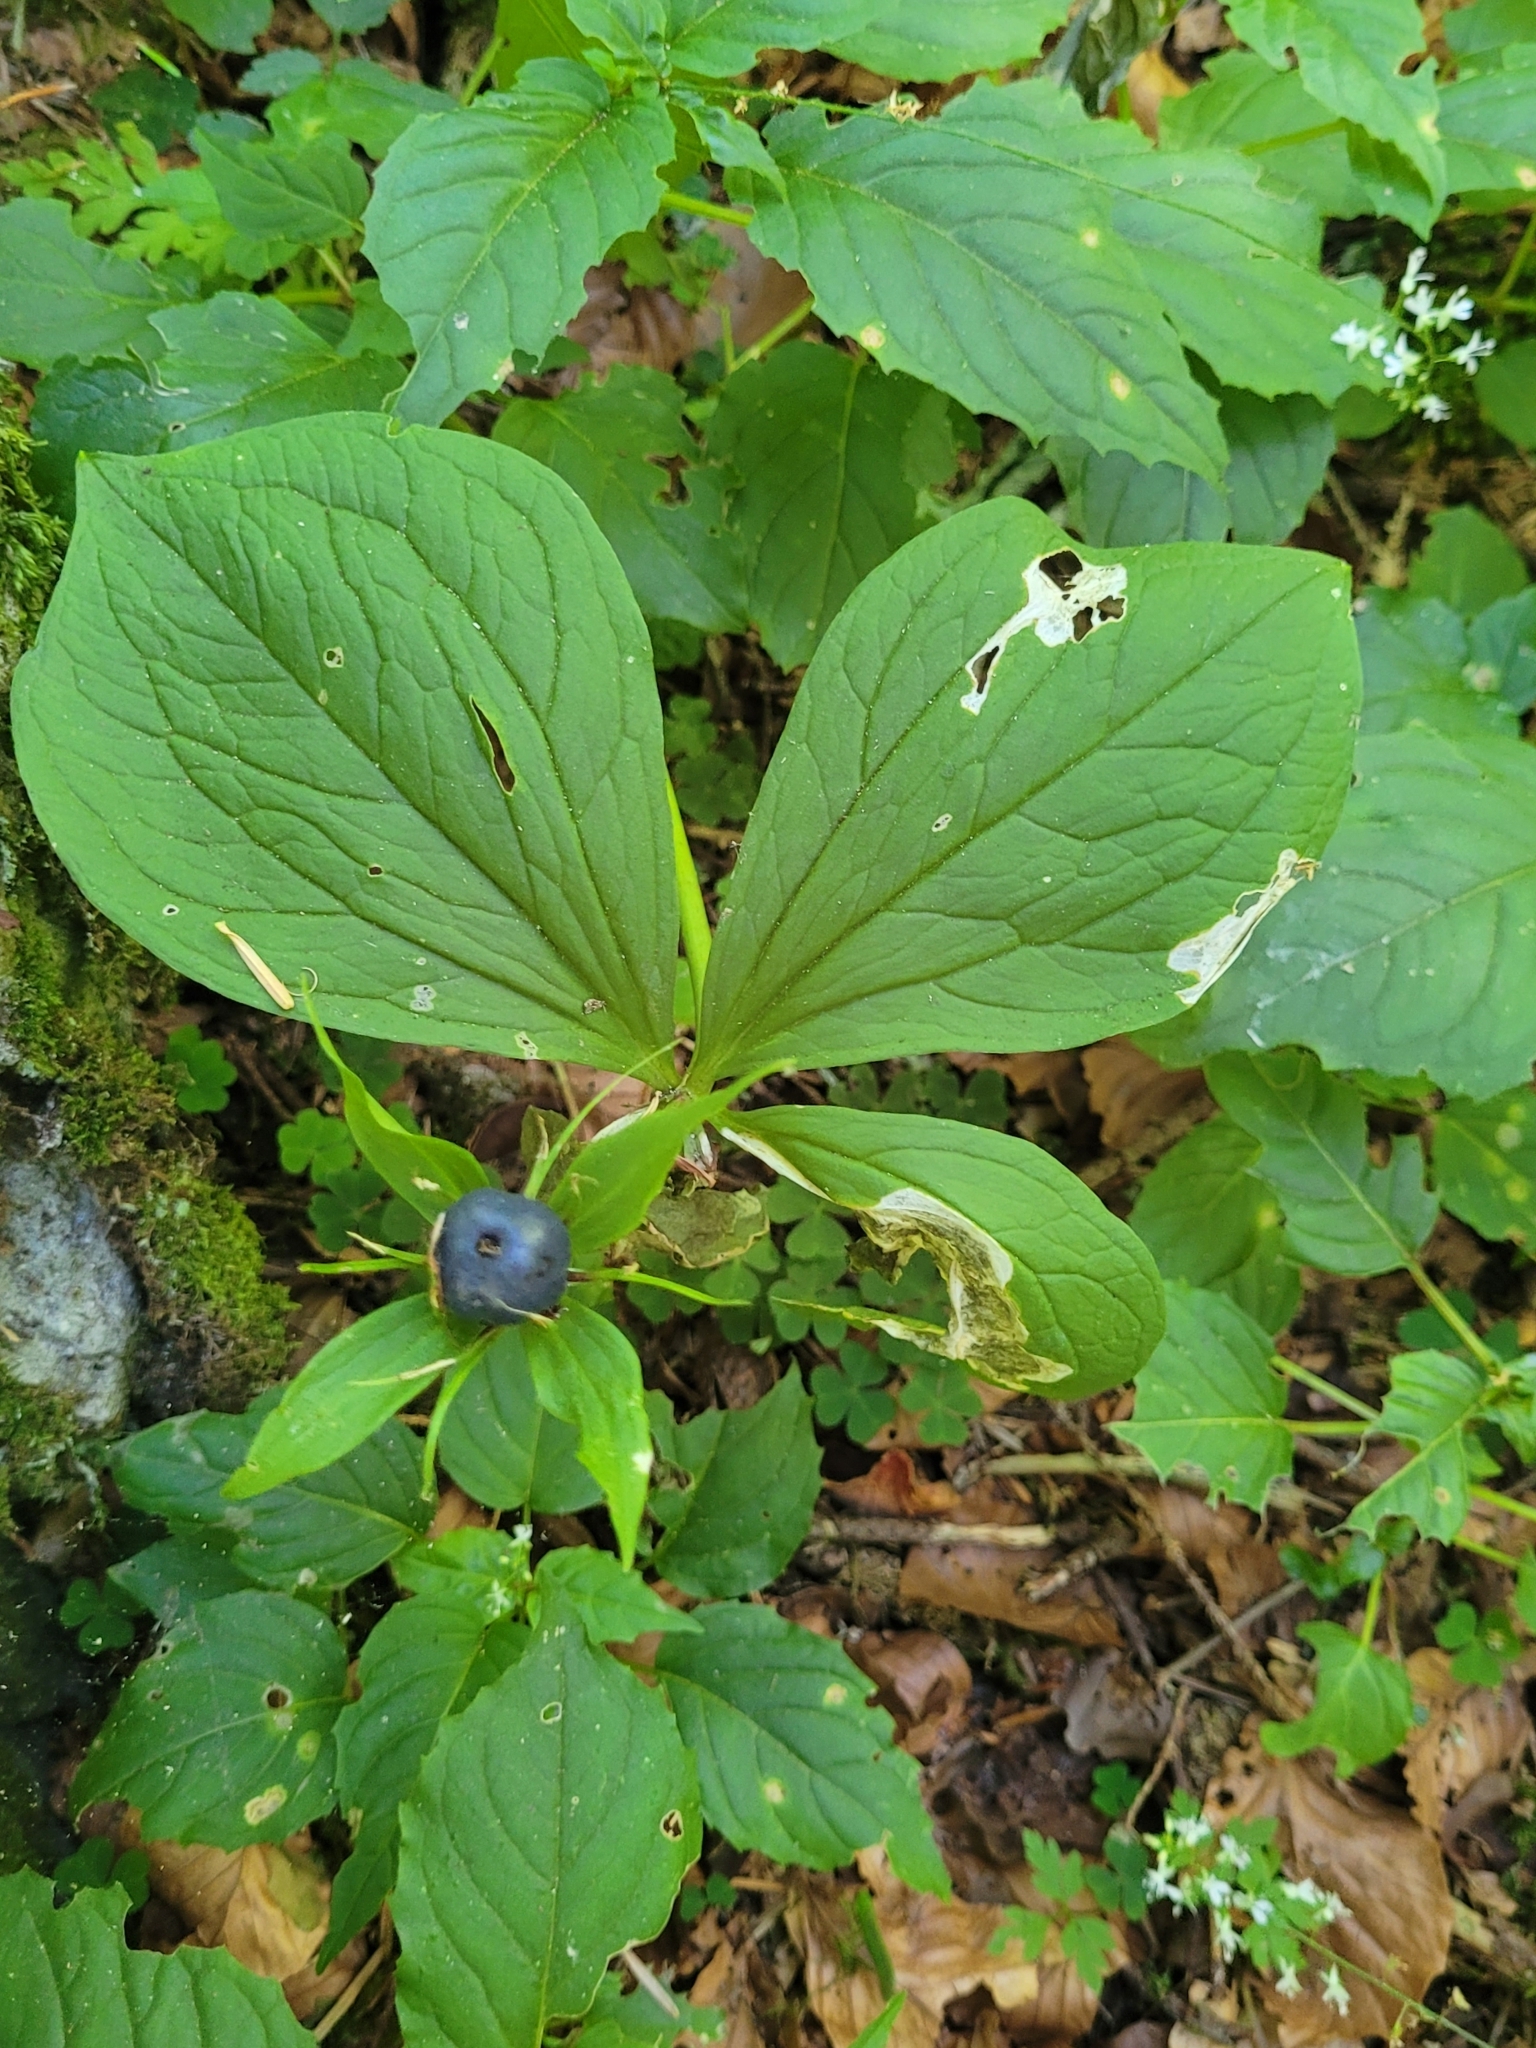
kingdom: Plantae
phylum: Tracheophyta
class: Liliopsida
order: Liliales
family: Melanthiaceae
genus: Paris
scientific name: Paris quadrifolia
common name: Herb-paris
